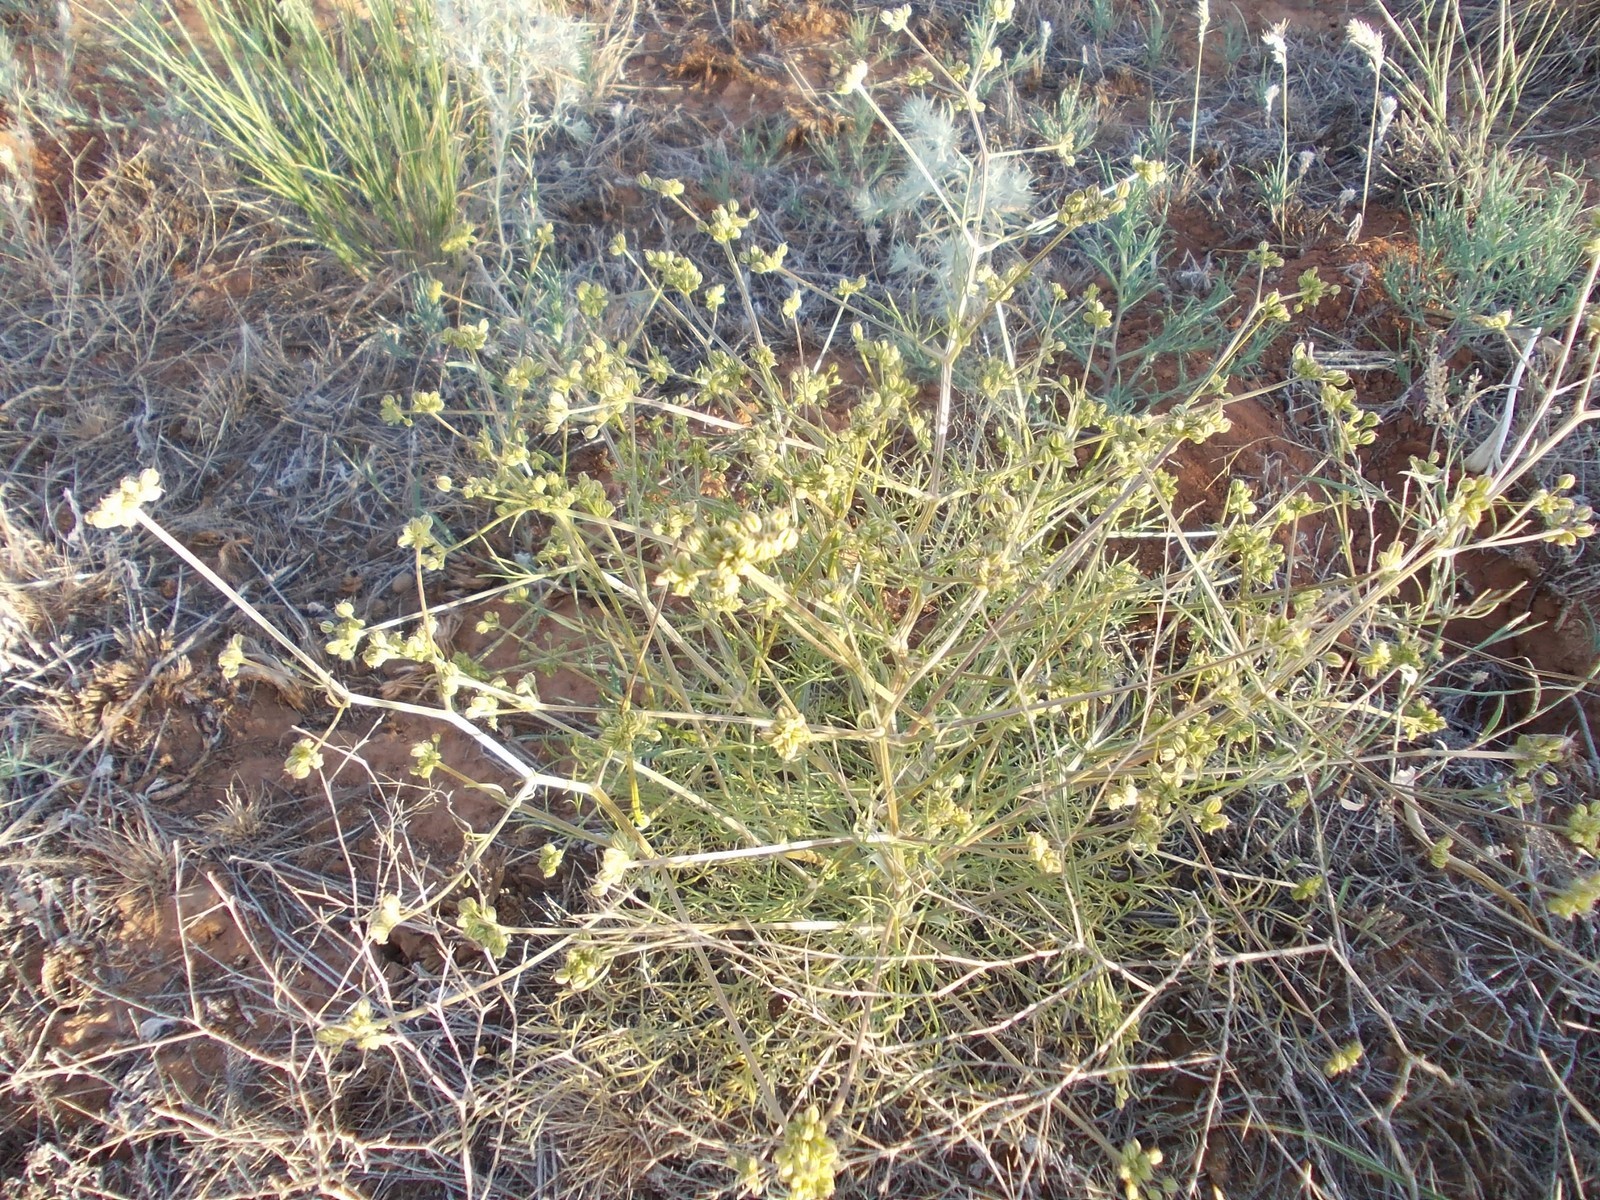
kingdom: Plantae
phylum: Tracheophyta
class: Magnoliopsida
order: Apiales
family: Apiaceae
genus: Trinia
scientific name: Trinia hispida
